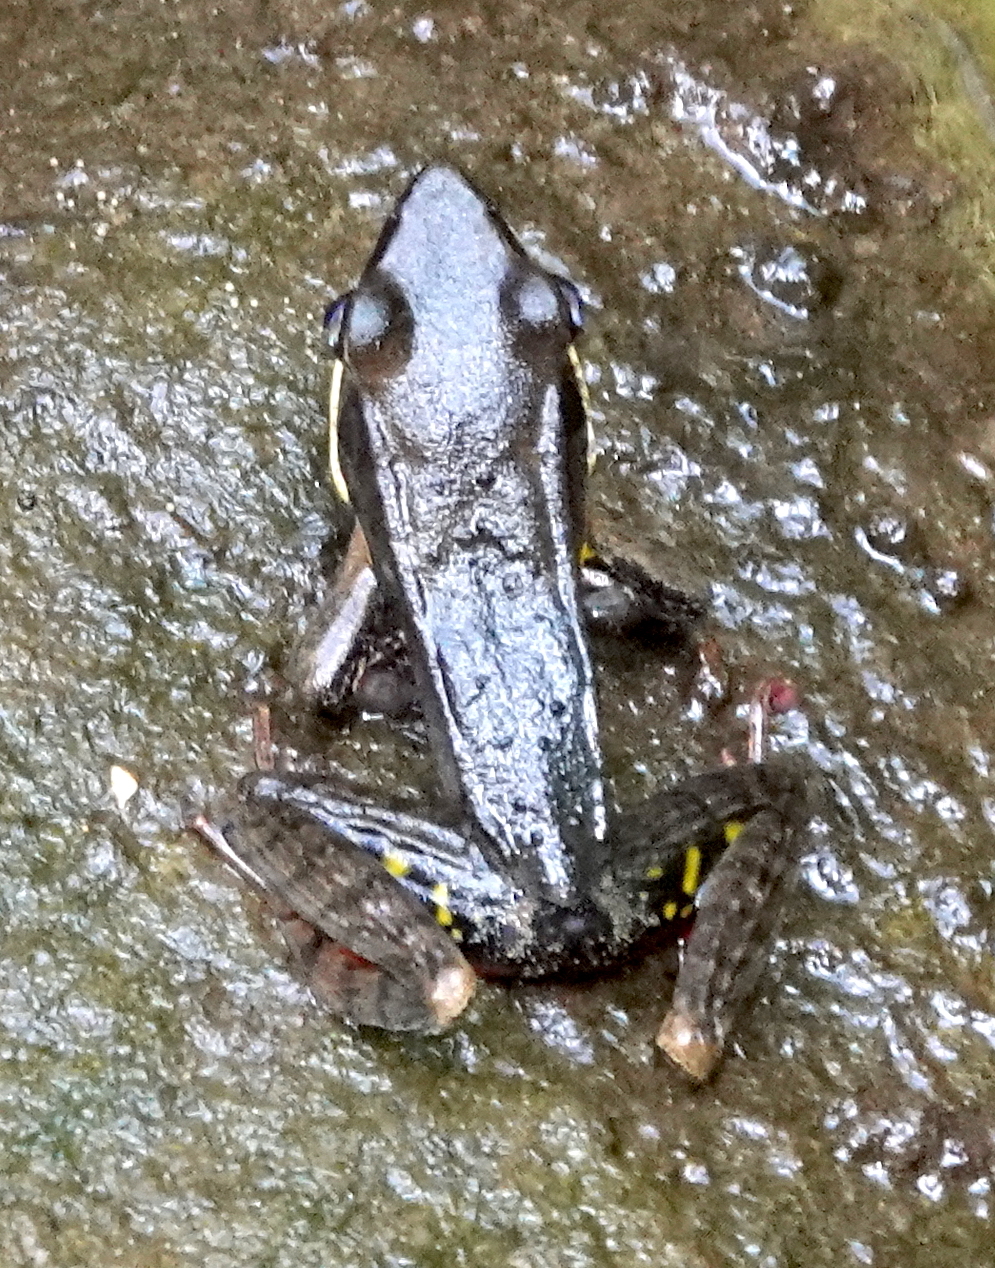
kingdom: Animalia
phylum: Chordata
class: Amphibia
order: Anura
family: Ranidae
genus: Lithobates
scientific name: Lithobates warszewitschii
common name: Warszewitsch's frog
